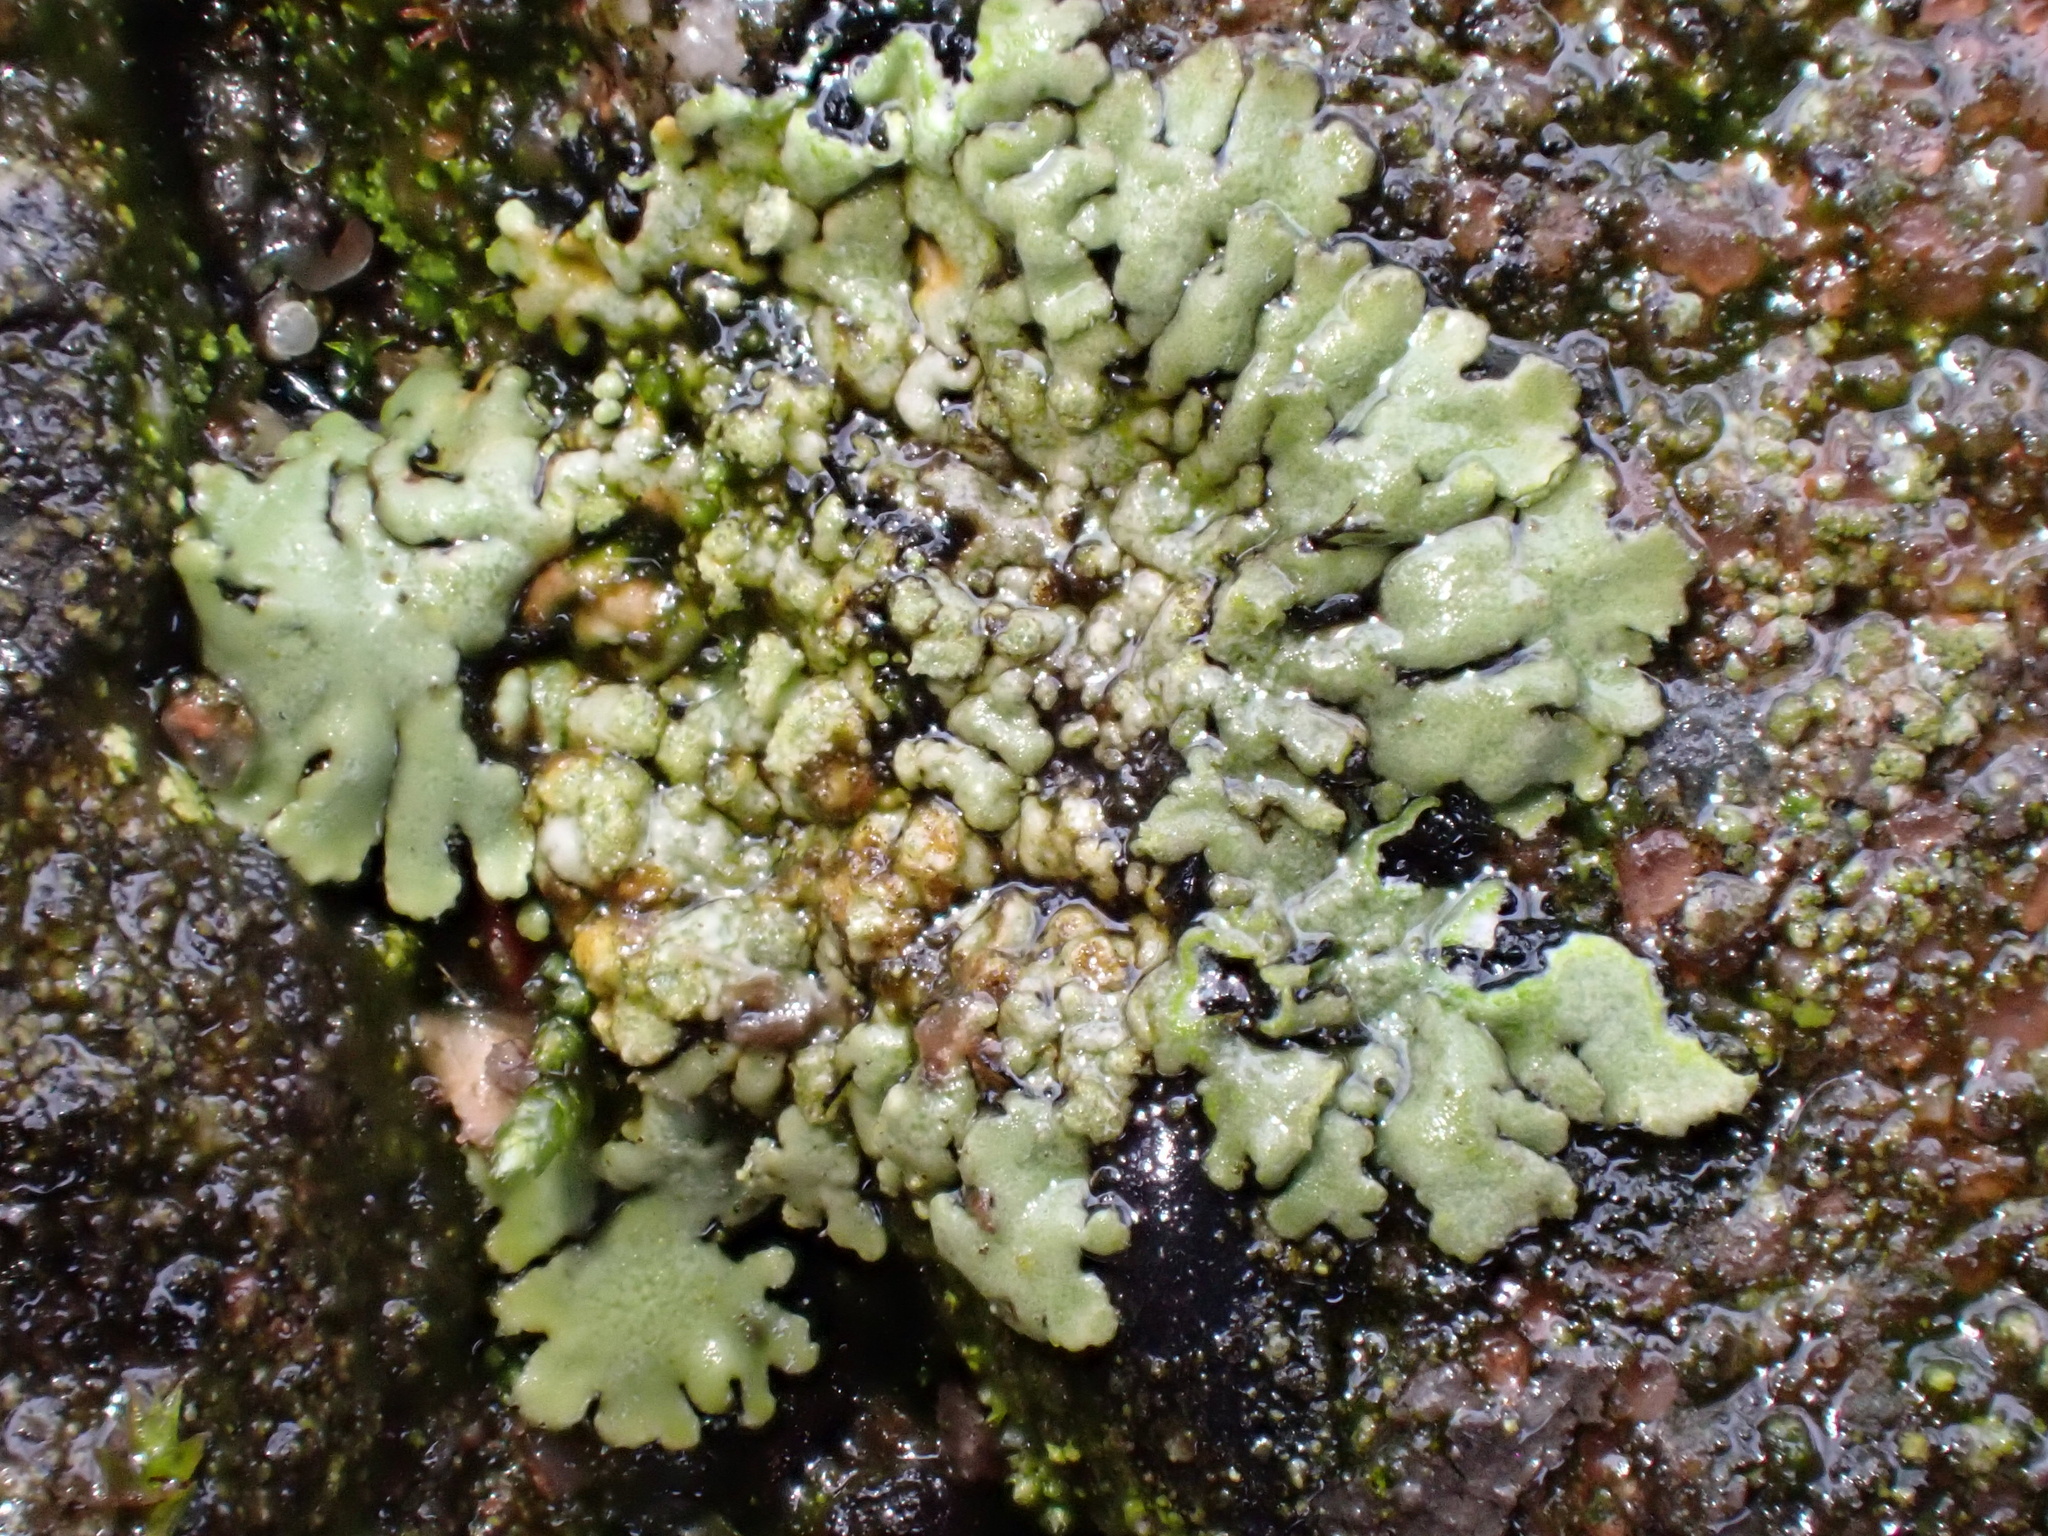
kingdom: Fungi
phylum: Ascomycota
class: Lecanoromycetes
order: Caliciales
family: Physciaceae
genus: Phaeophyscia
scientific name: Phaeophyscia orbicularis
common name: Mealy shadow lichen
